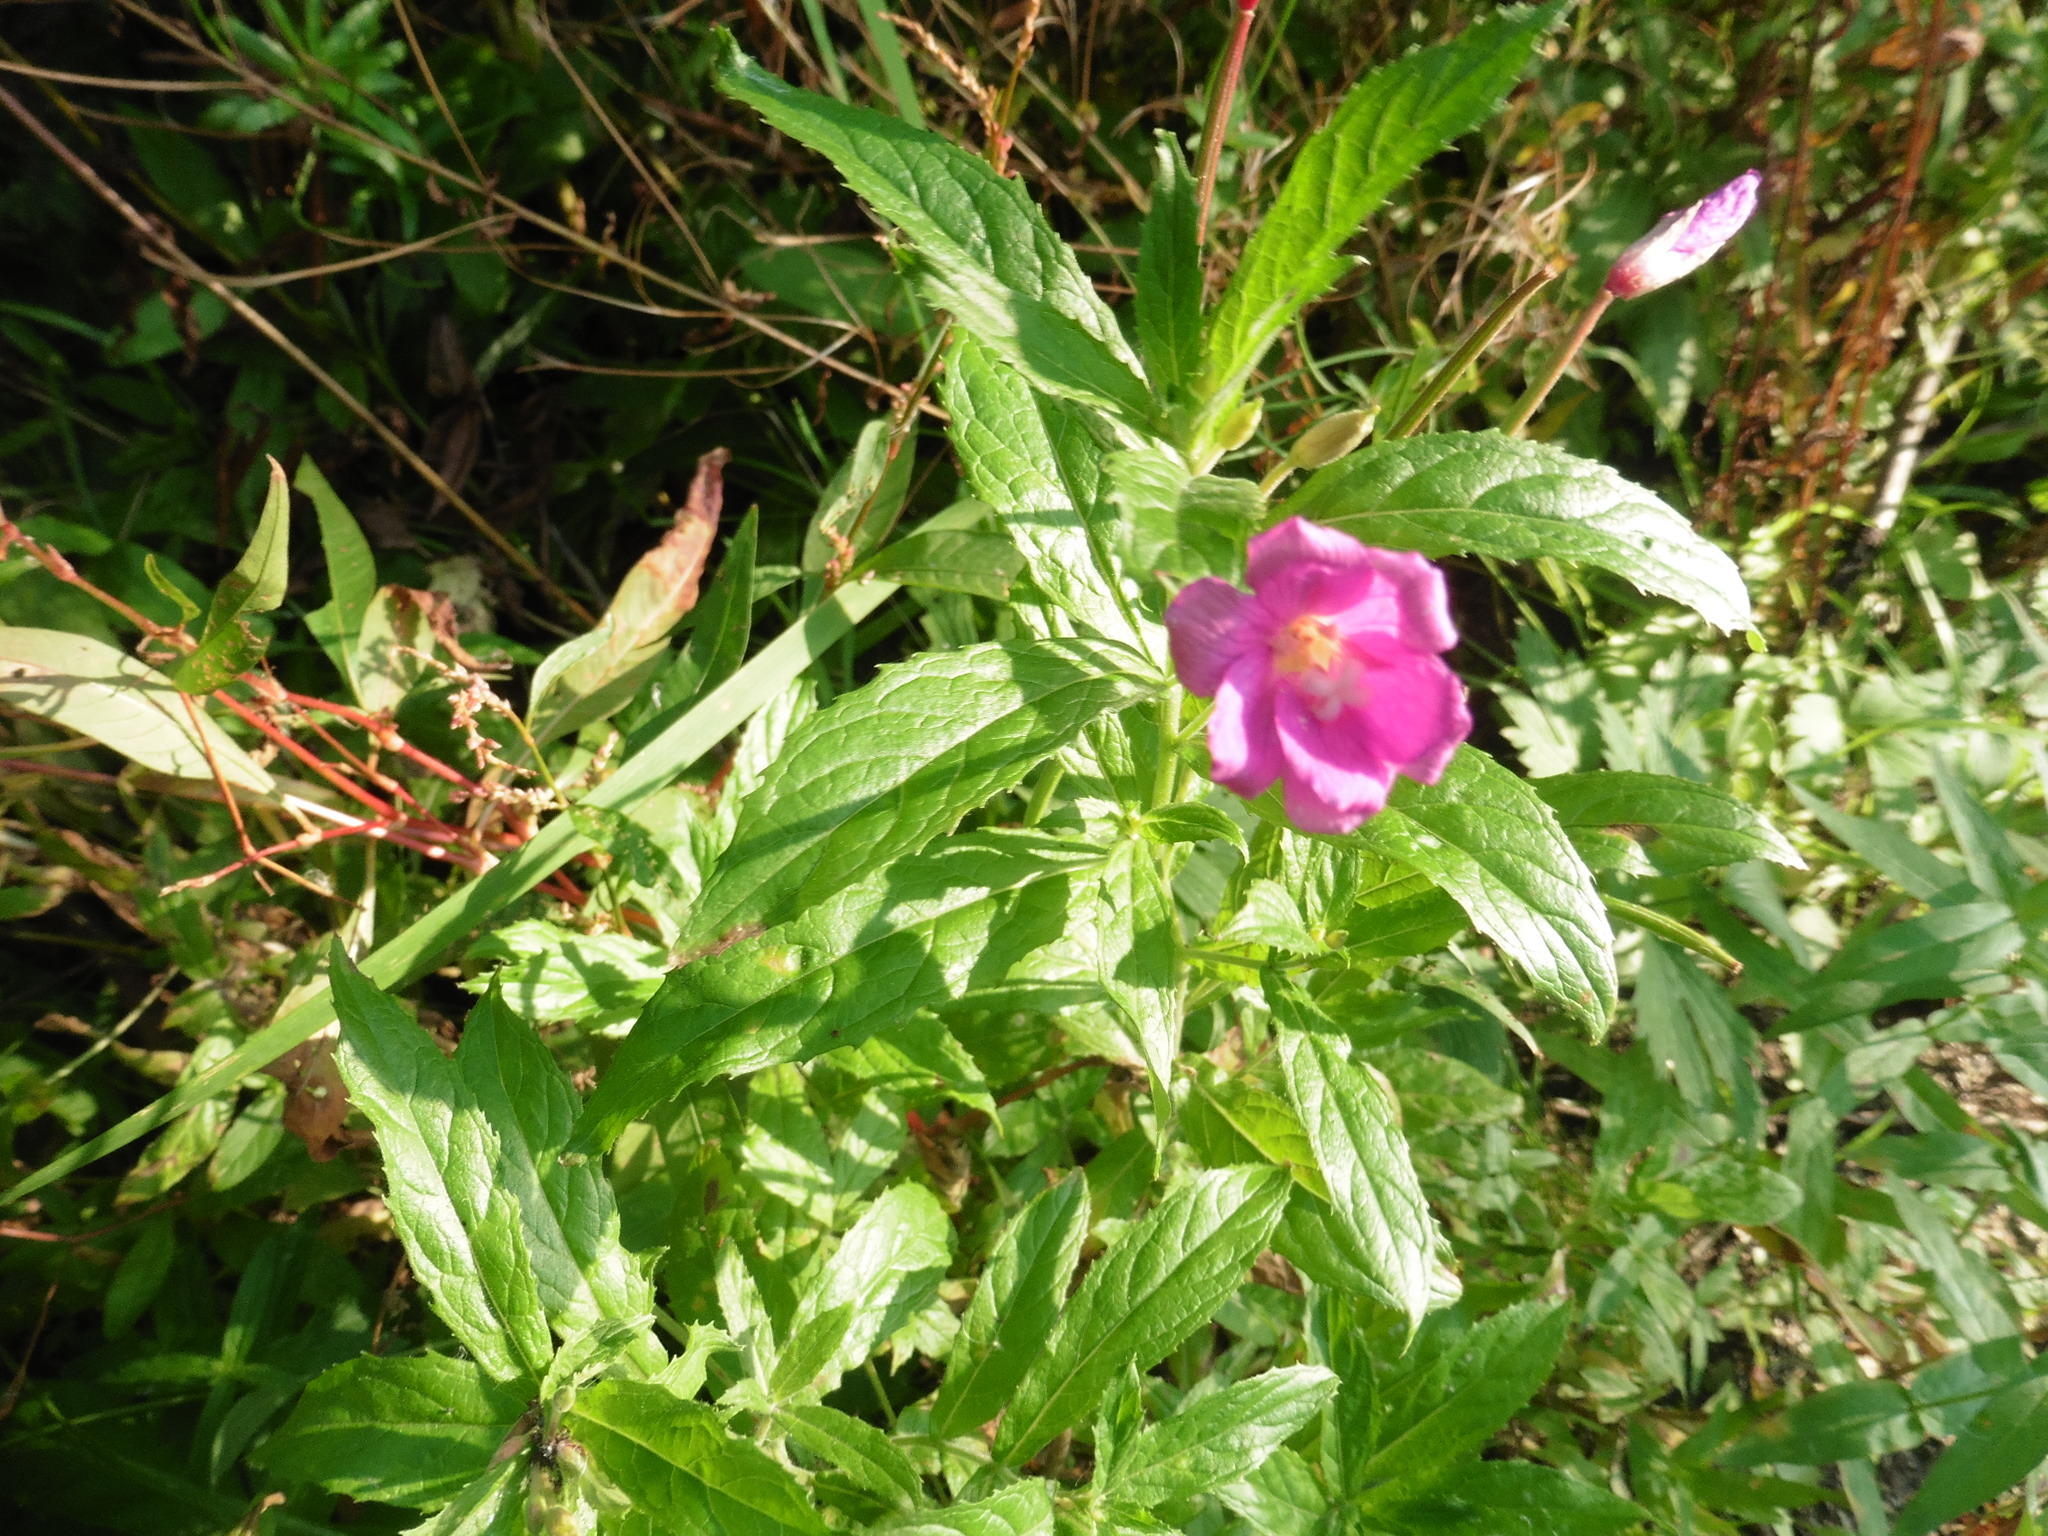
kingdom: Plantae
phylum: Tracheophyta
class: Magnoliopsida
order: Myrtales
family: Onagraceae
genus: Epilobium
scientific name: Epilobium hirsutum
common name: Great willowherb
